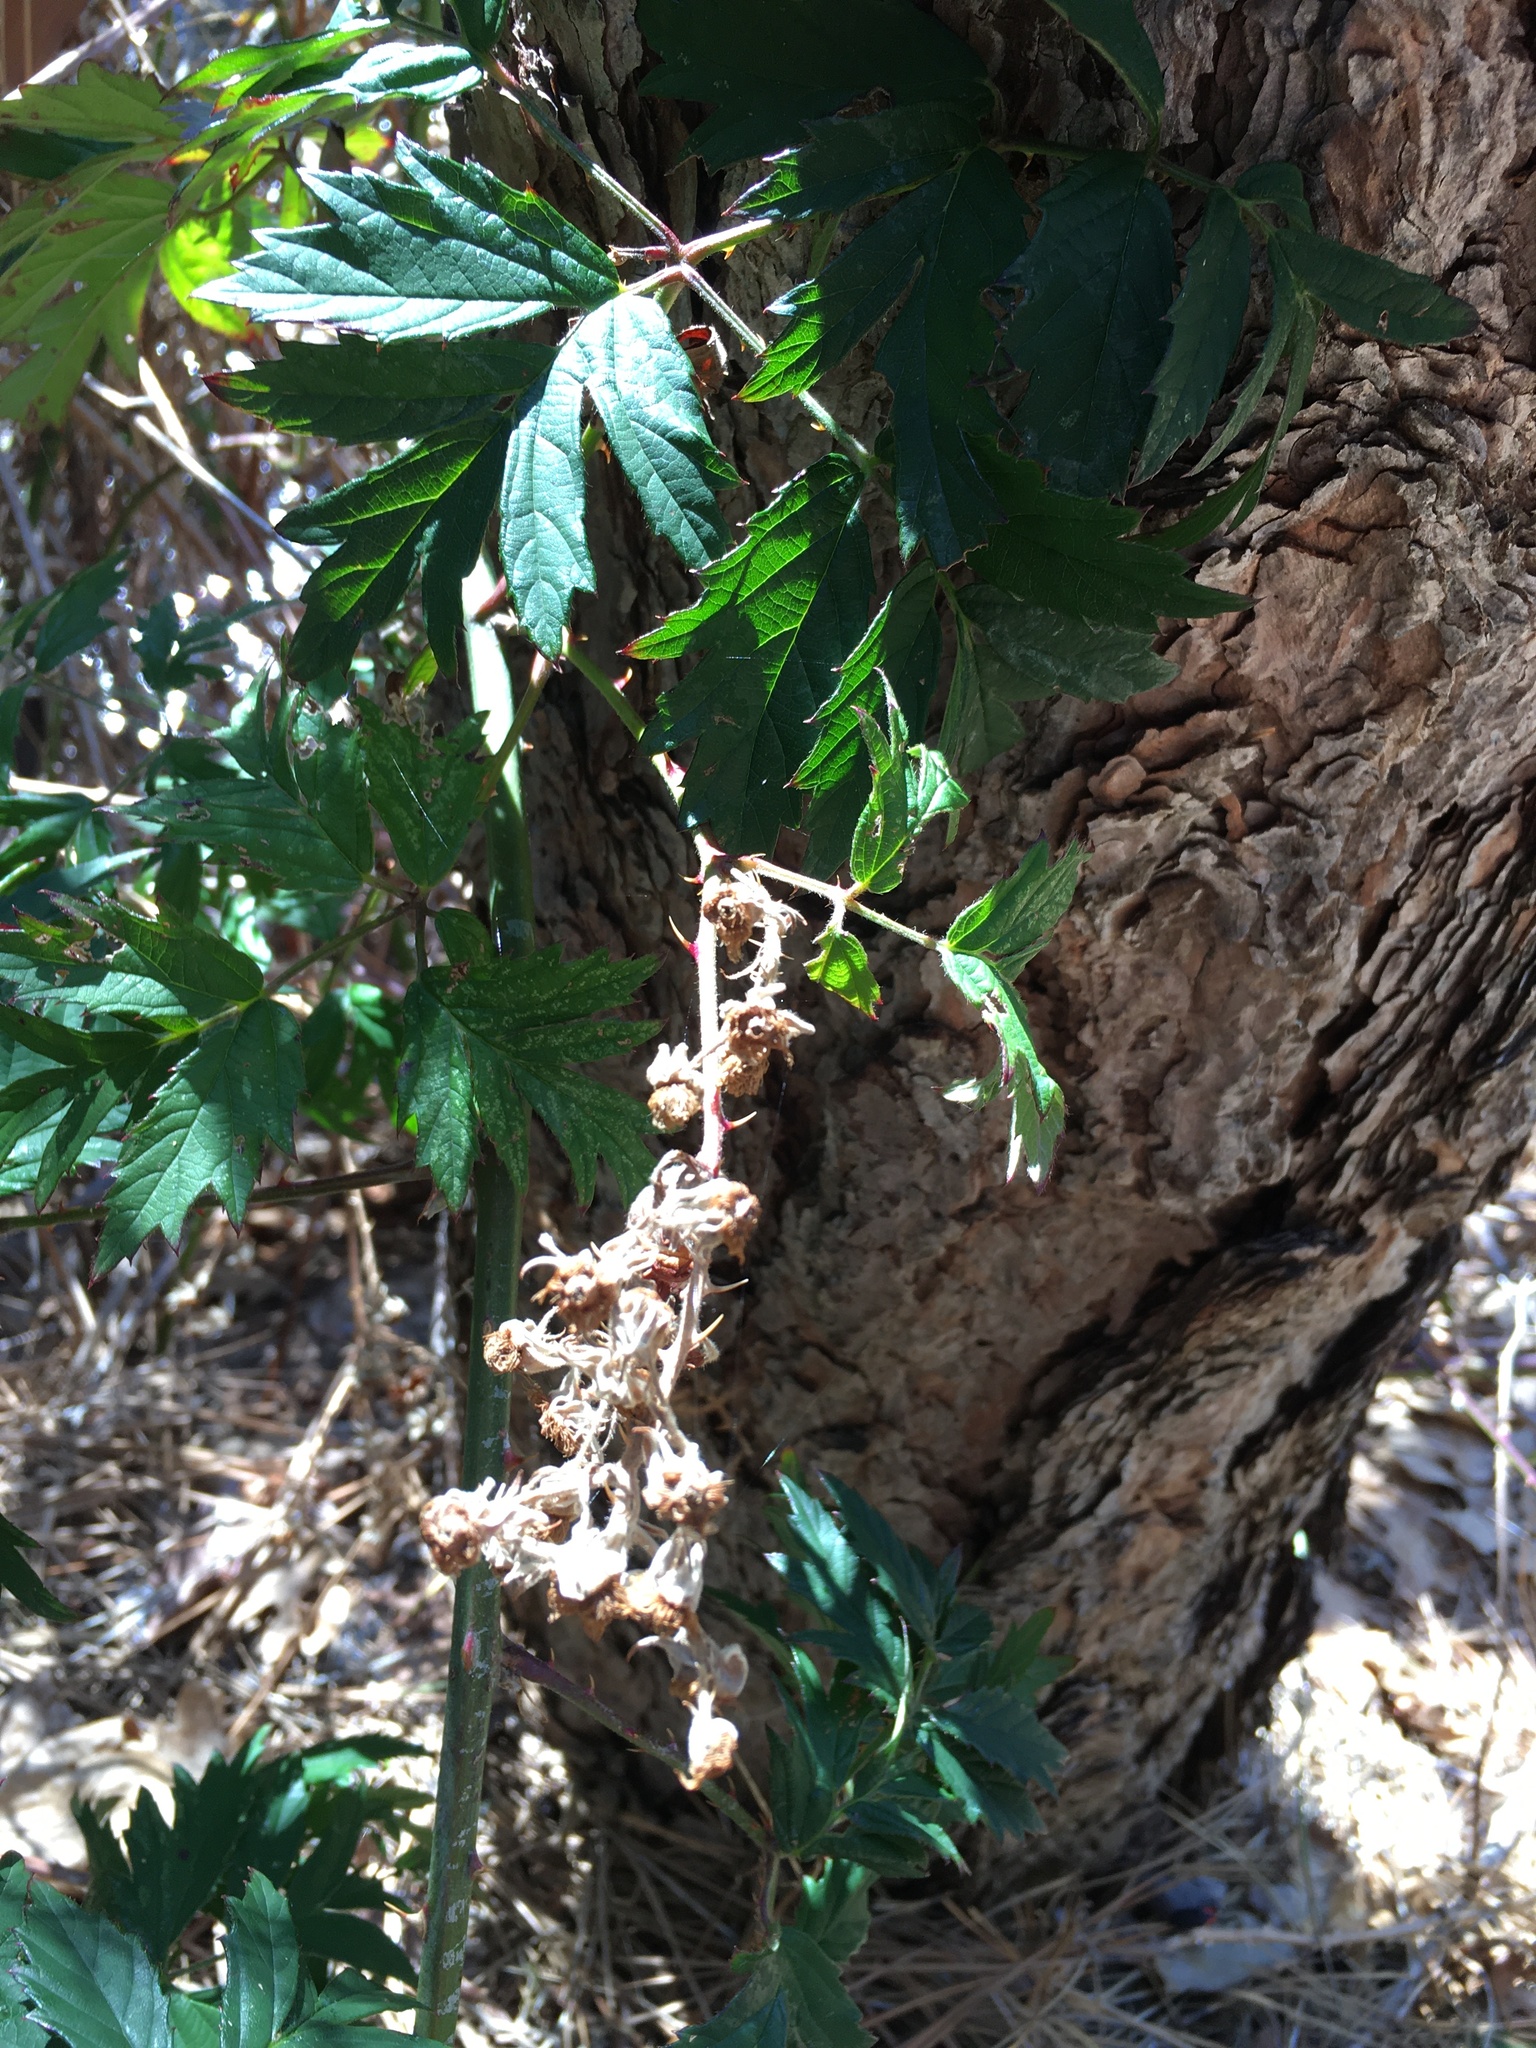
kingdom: Plantae
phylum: Tracheophyta
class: Magnoliopsida
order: Rosales
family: Rosaceae
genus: Rubus
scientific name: Rubus laciniatus
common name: Evergreen blackberry
